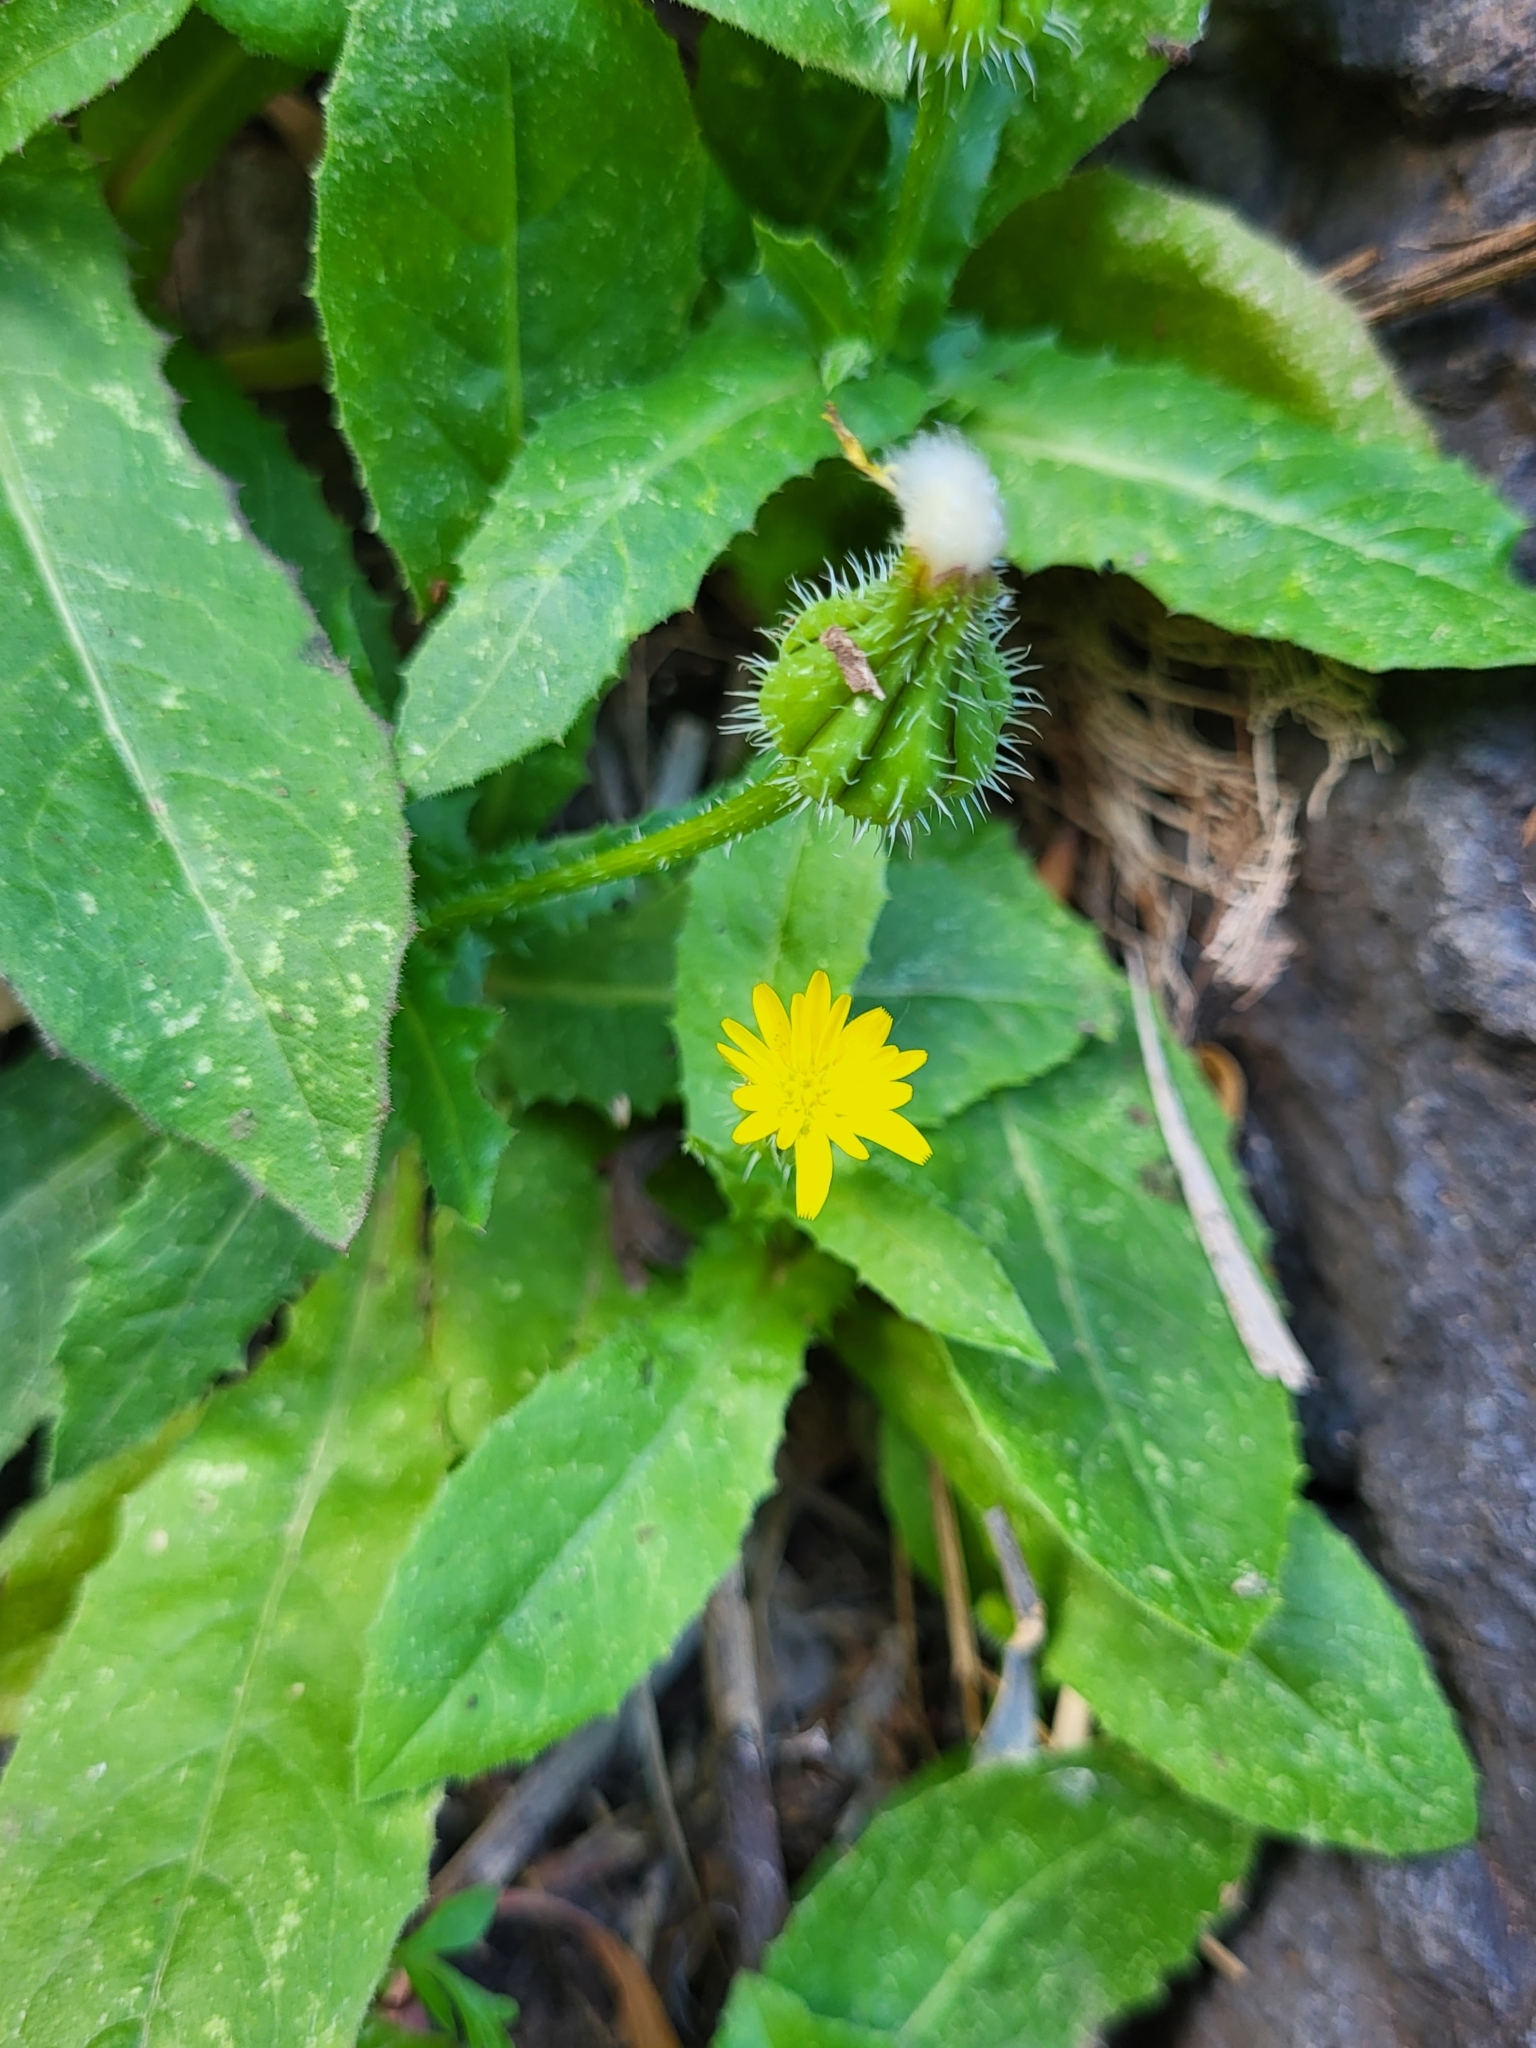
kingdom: Plantae
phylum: Tracheophyta
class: Magnoliopsida
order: Asterales
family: Asteraceae
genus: Urospermum
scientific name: Urospermum picroides
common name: False hawkbit
